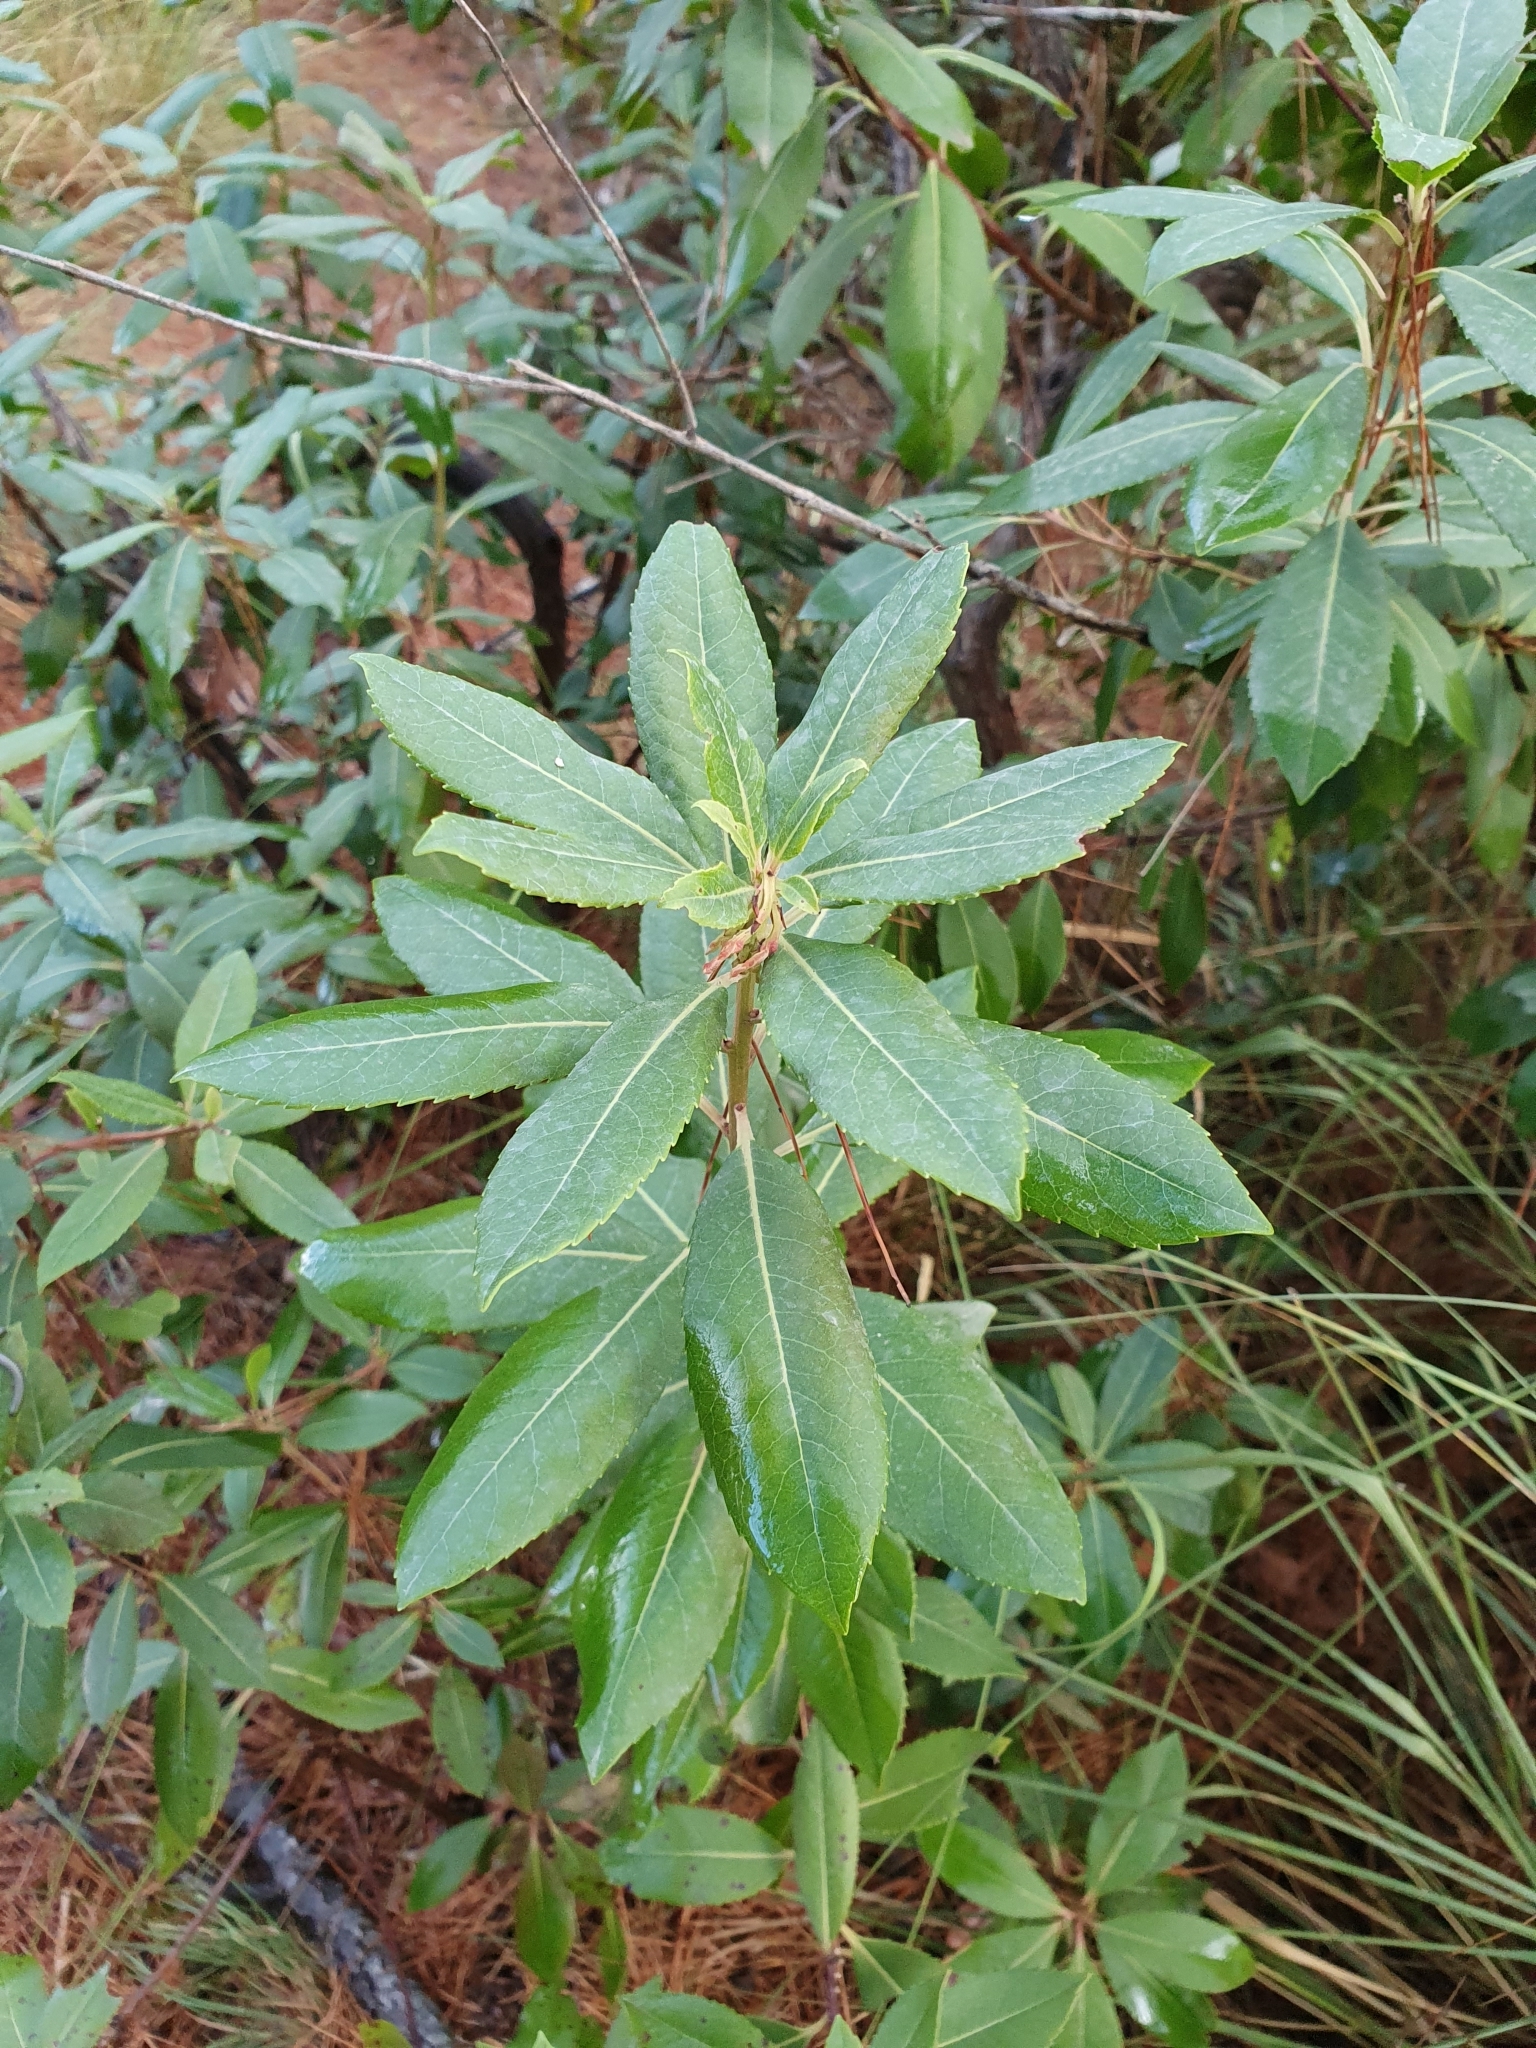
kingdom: Plantae
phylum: Tracheophyta
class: Magnoliopsida
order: Ericales
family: Ericaceae
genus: Arbutus
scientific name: Arbutus unedo
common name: Strawberry-tree
